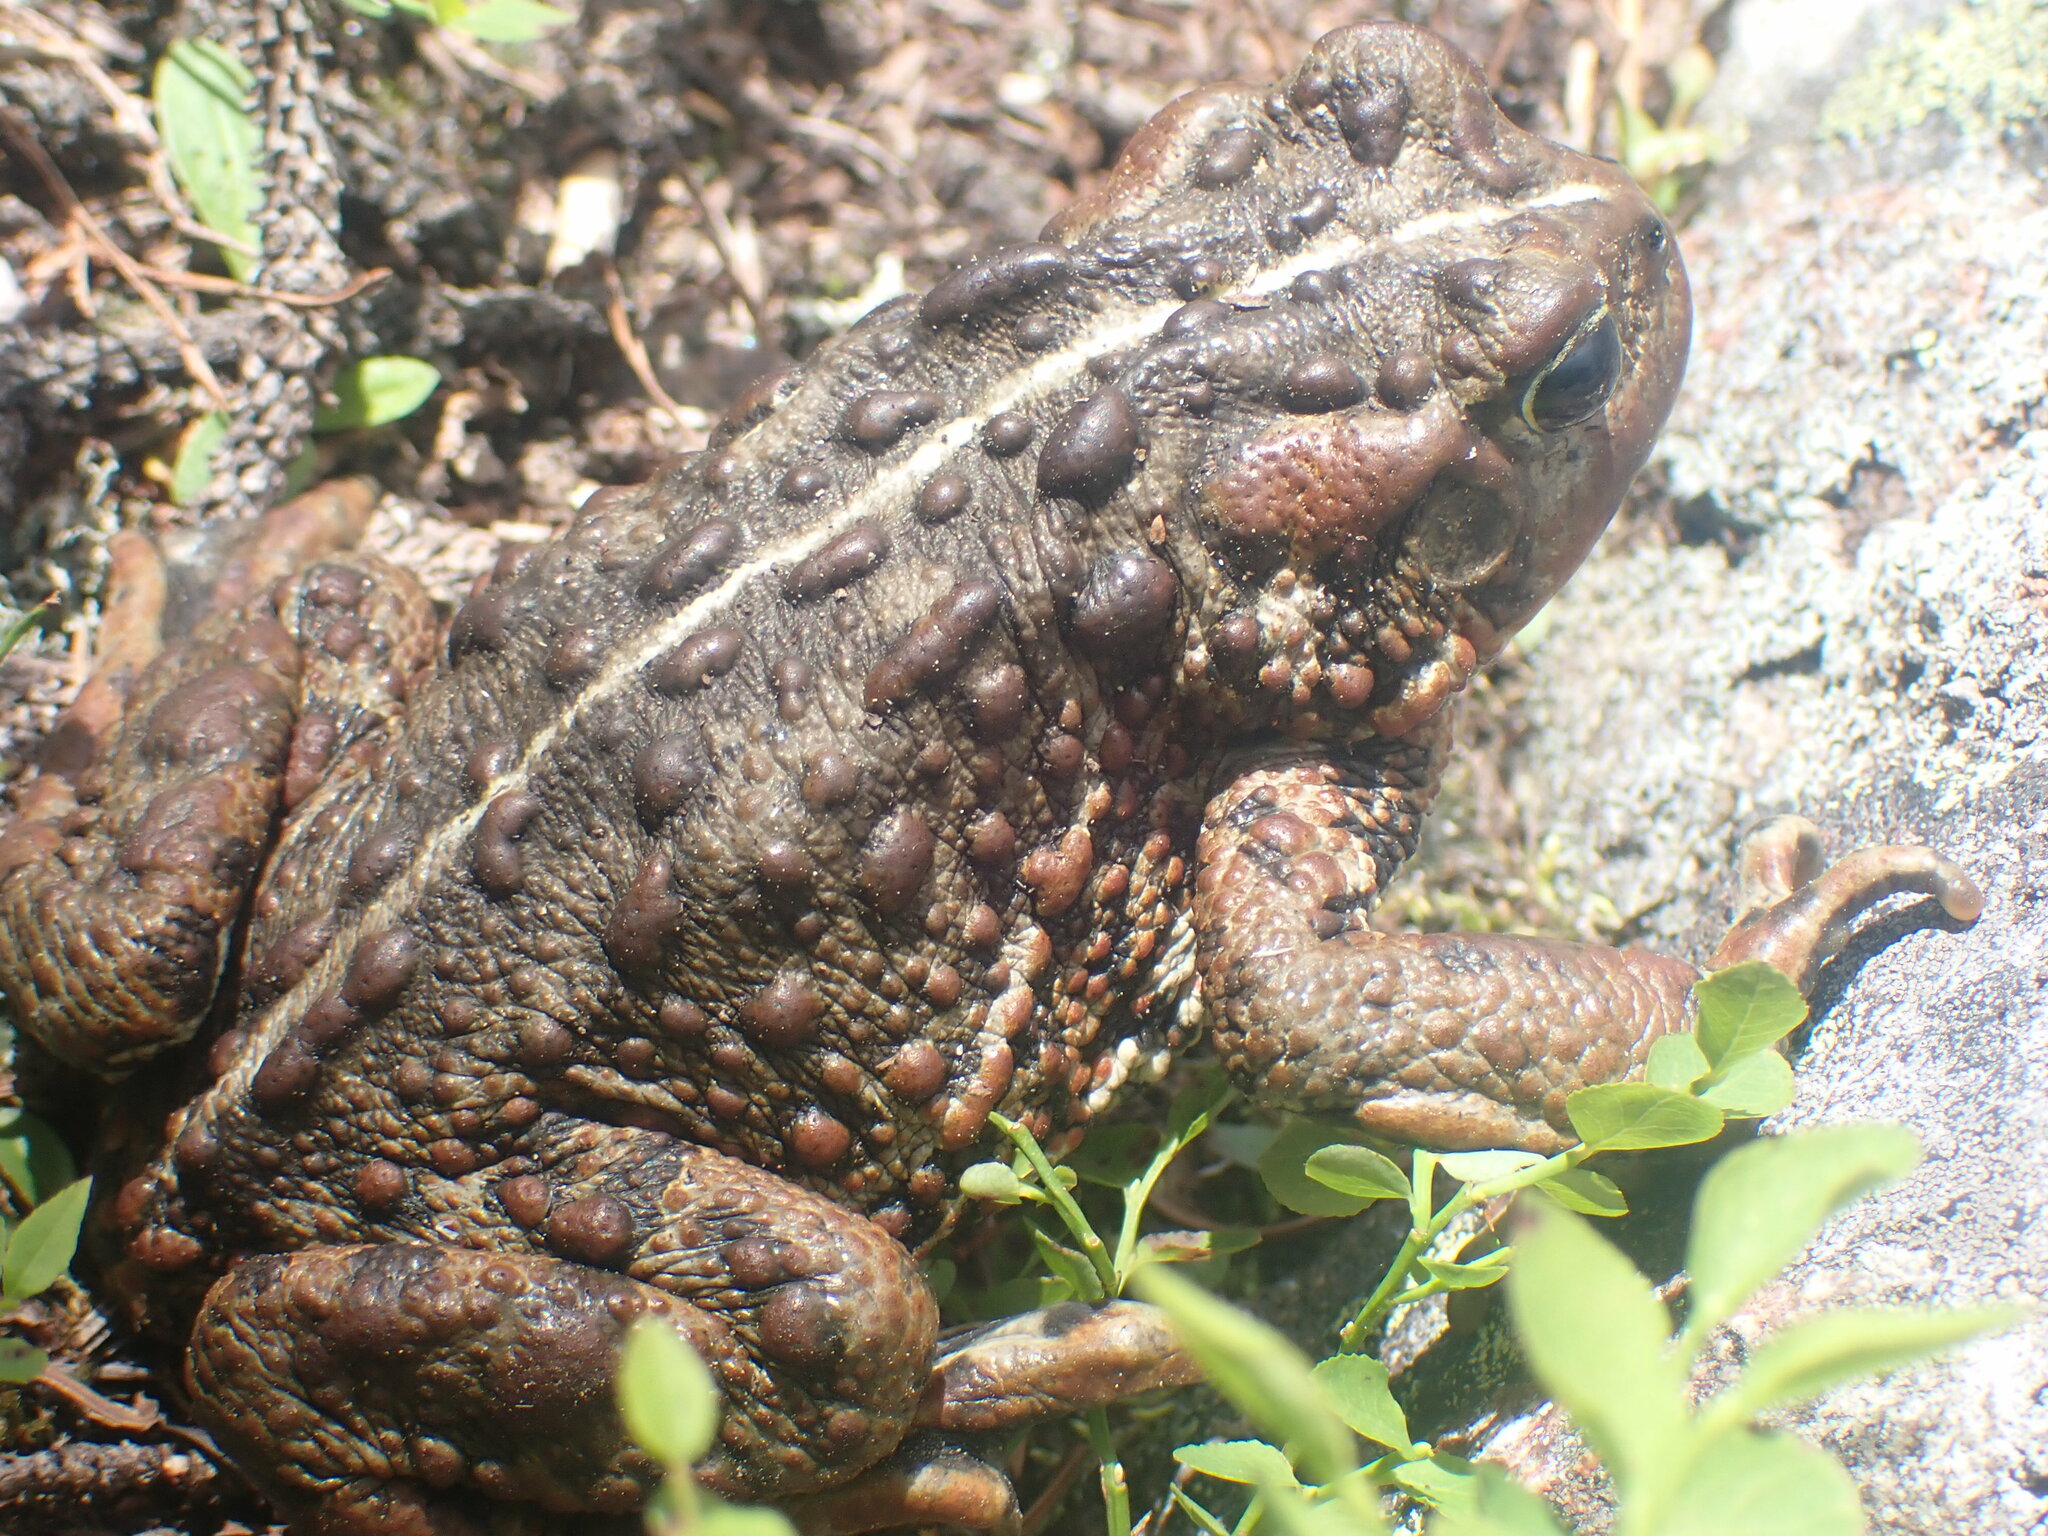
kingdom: Animalia
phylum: Chordata
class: Amphibia
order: Anura
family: Bufonidae
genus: Anaxyrus
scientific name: Anaxyrus boreas
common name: Western toad
